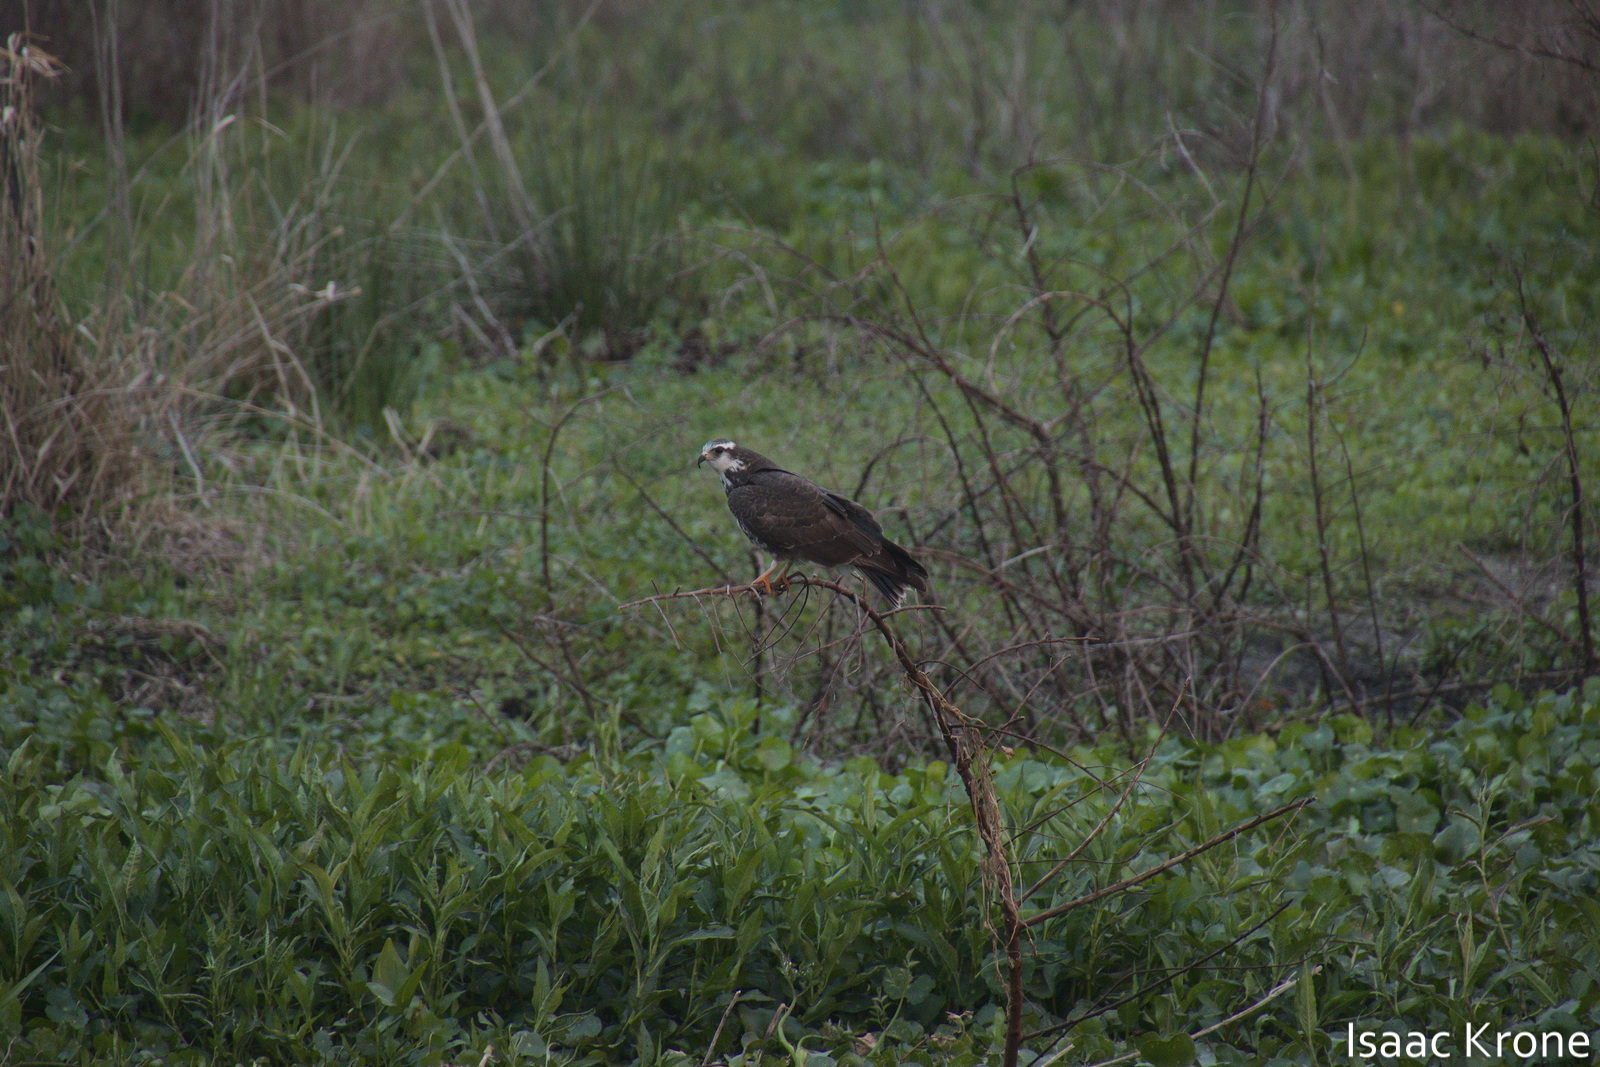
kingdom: Animalia
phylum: Chordata
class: Aves
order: Accipitriformes
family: Accipitridae
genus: Rostrhamus
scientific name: Rostrhamus sociabilis
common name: Snail kite
